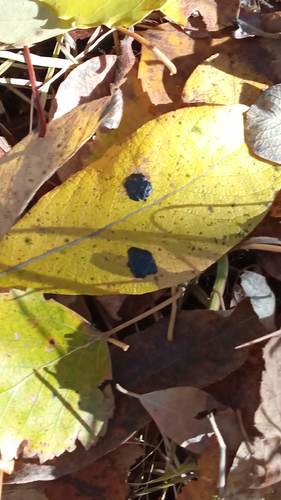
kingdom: Fungi
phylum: Ascomycota
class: Leotiomycetes
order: Rhytismatales
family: Rhytismataceae
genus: Rhytisma
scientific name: Rhytisma salicinum
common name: Willow tarspot
